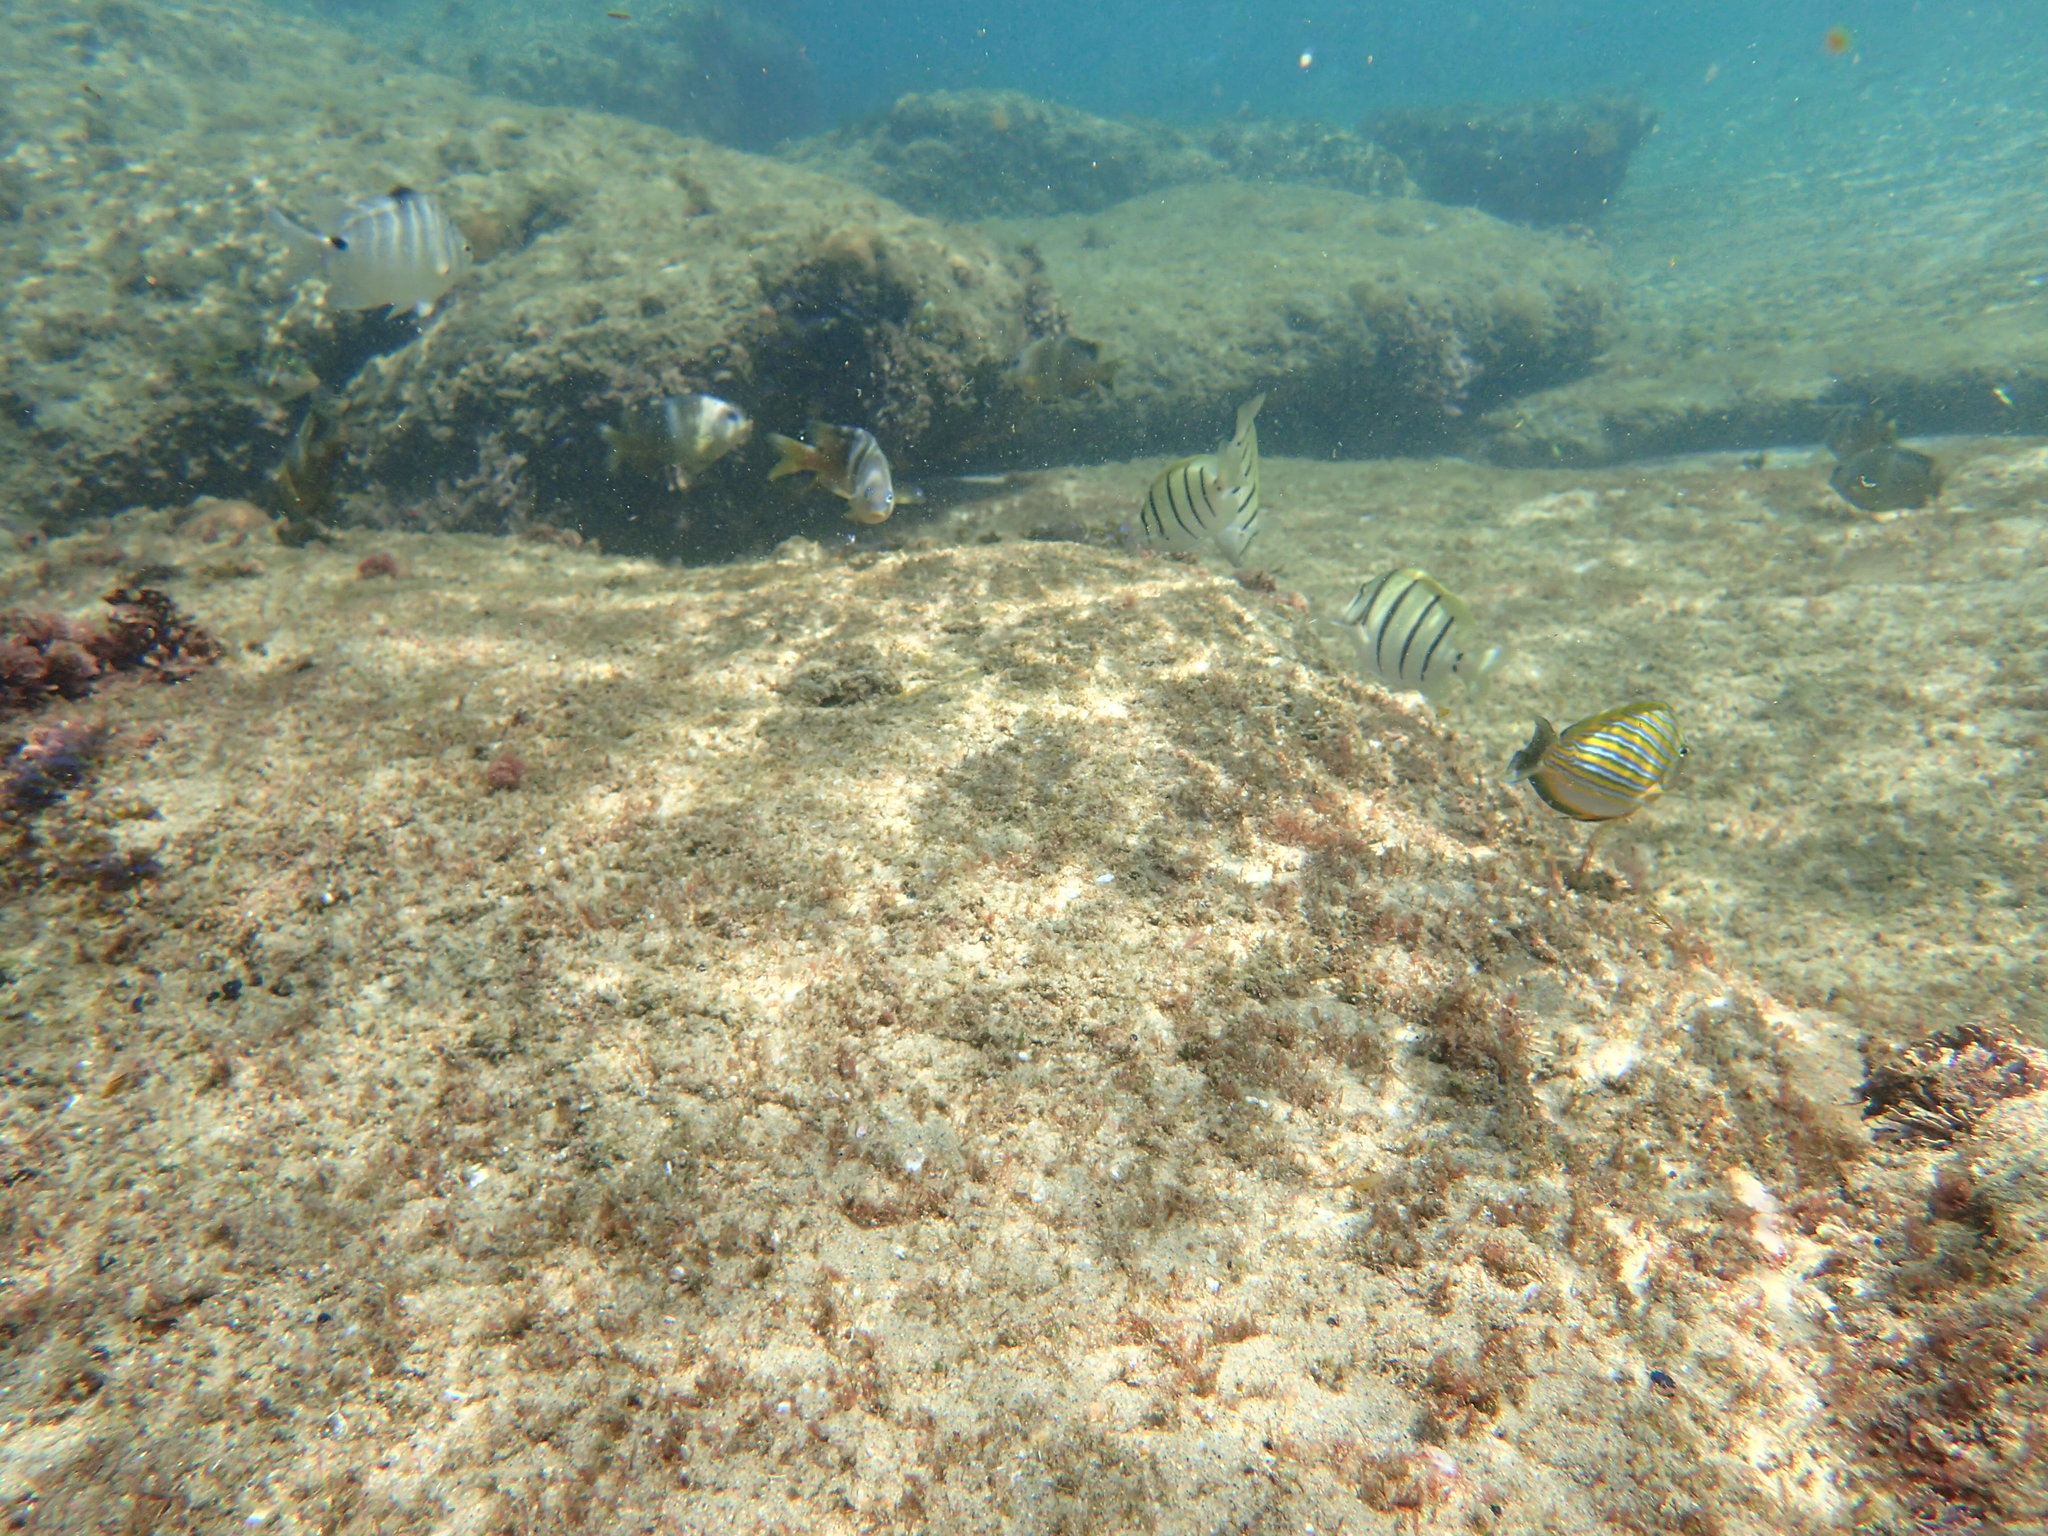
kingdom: Animalia
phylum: Chordata
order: Perciformes
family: Acanthuridae
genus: Acanthurus
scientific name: Acanthurus lineatus
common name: Striped surgeonfish
